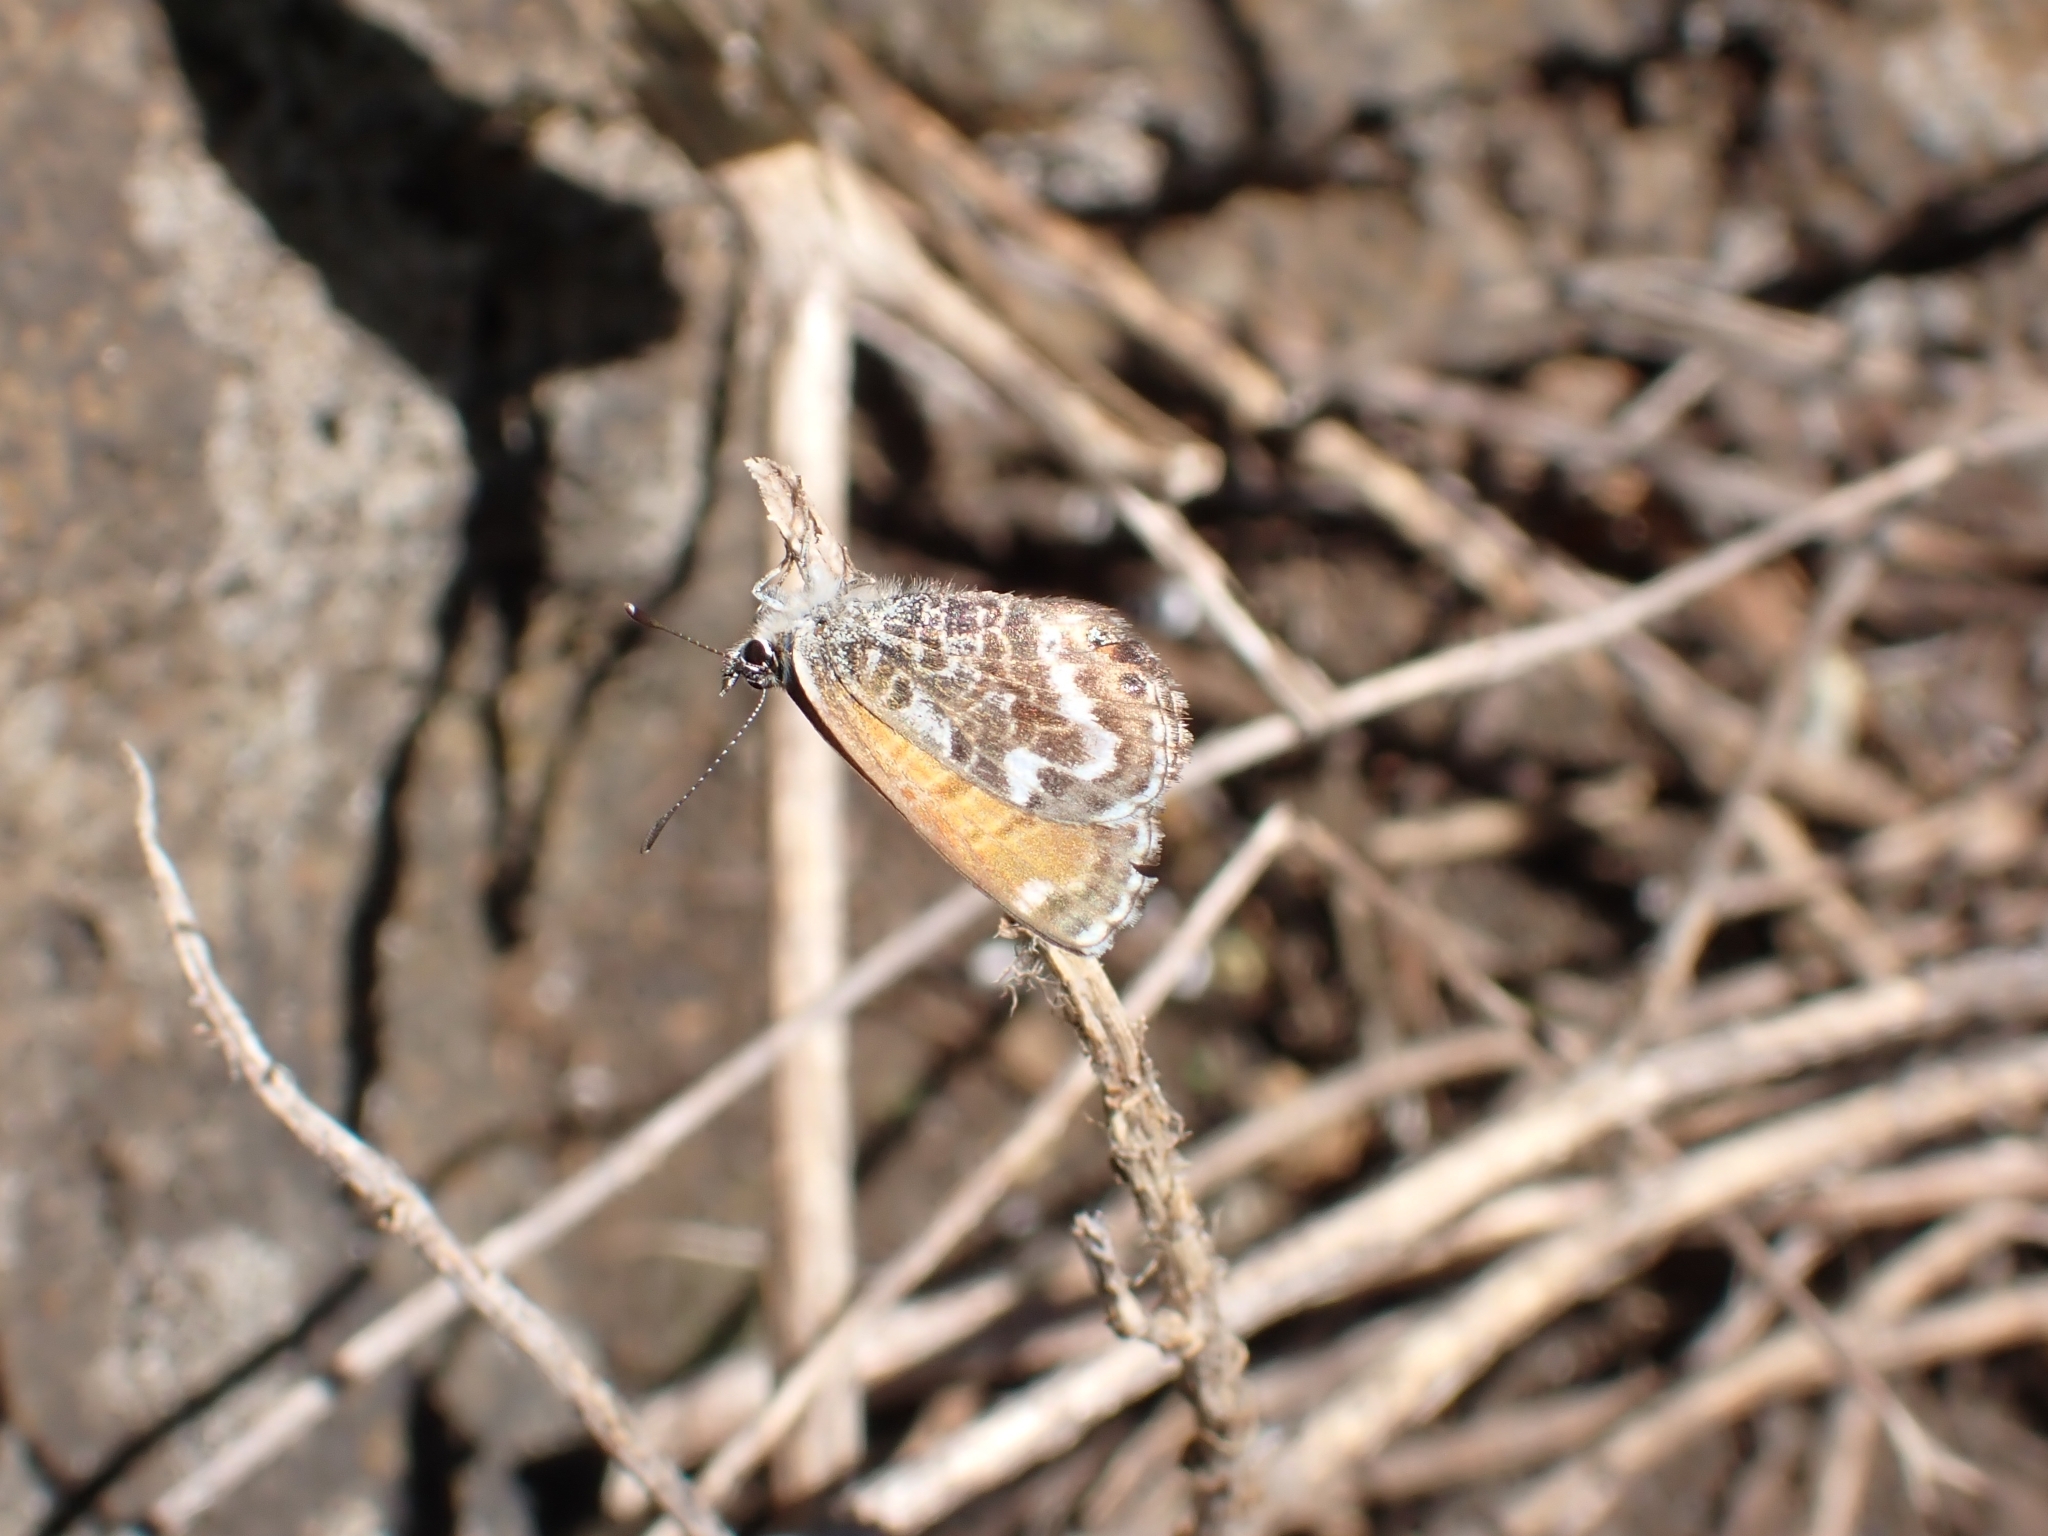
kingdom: Animalia
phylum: Arthropoda
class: Insecta
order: Lepidoptera
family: Lycaenidae
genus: Cyclyrius
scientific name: Cyclyrius webbianus
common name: Canary blue
